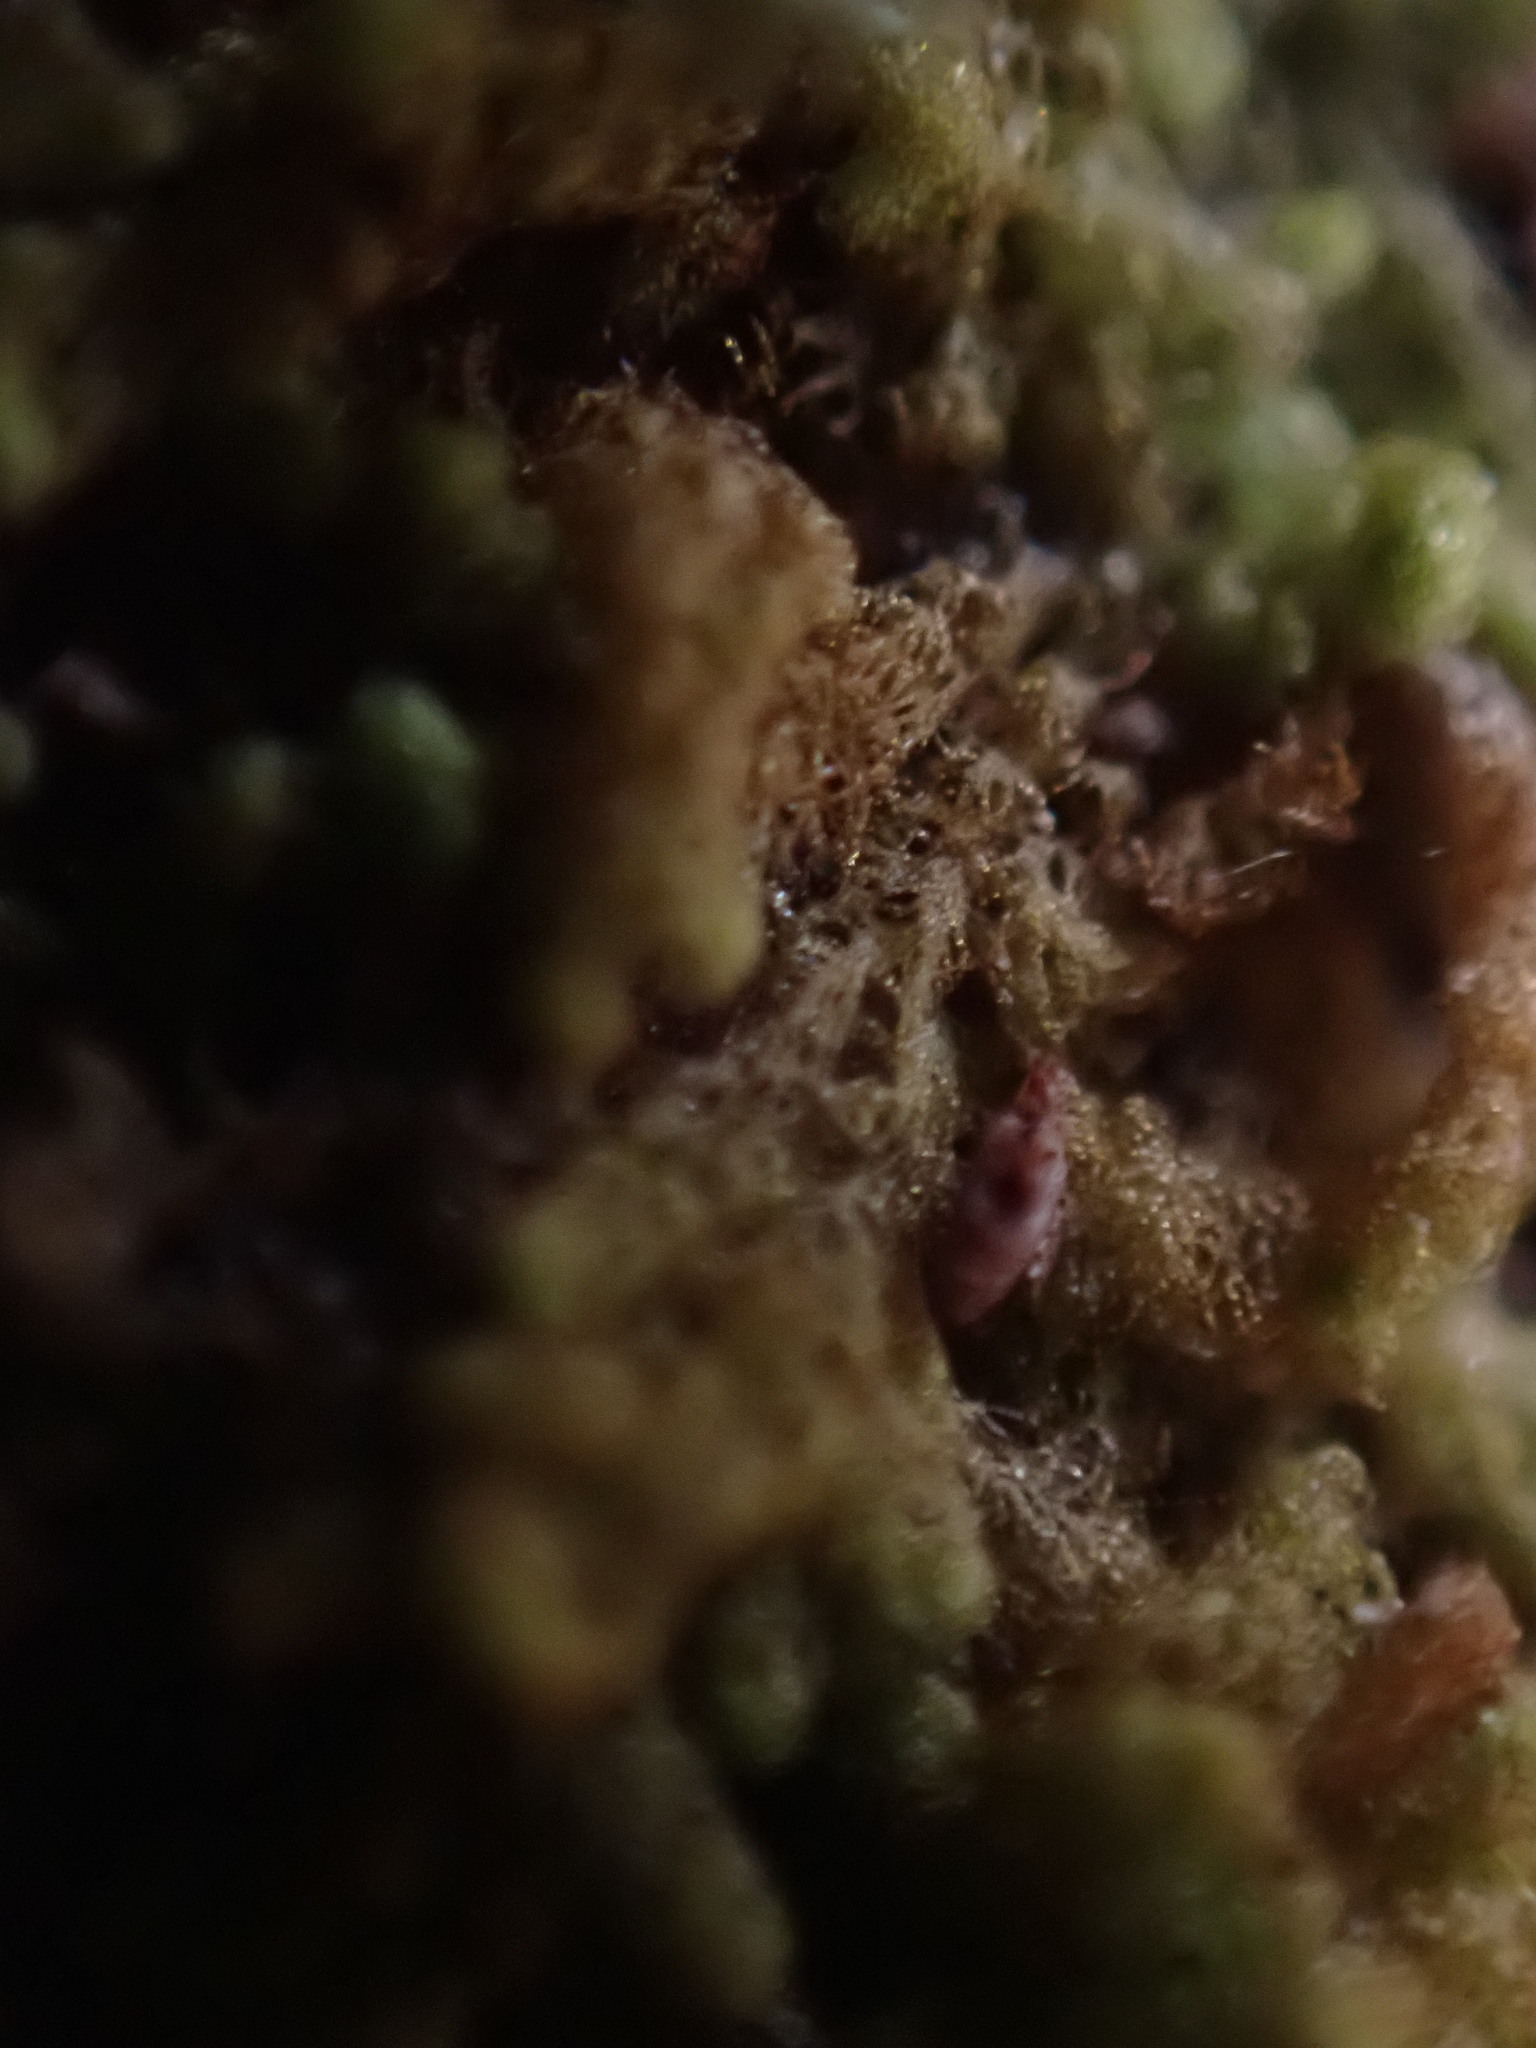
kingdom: Plantae
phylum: Marchantiophyta
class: Jungermanniopsida
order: Ptilidiales
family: Ptilidiaceae
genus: Ptilidium
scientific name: Ptilidium pulcherrimum
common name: Tree fringewort
